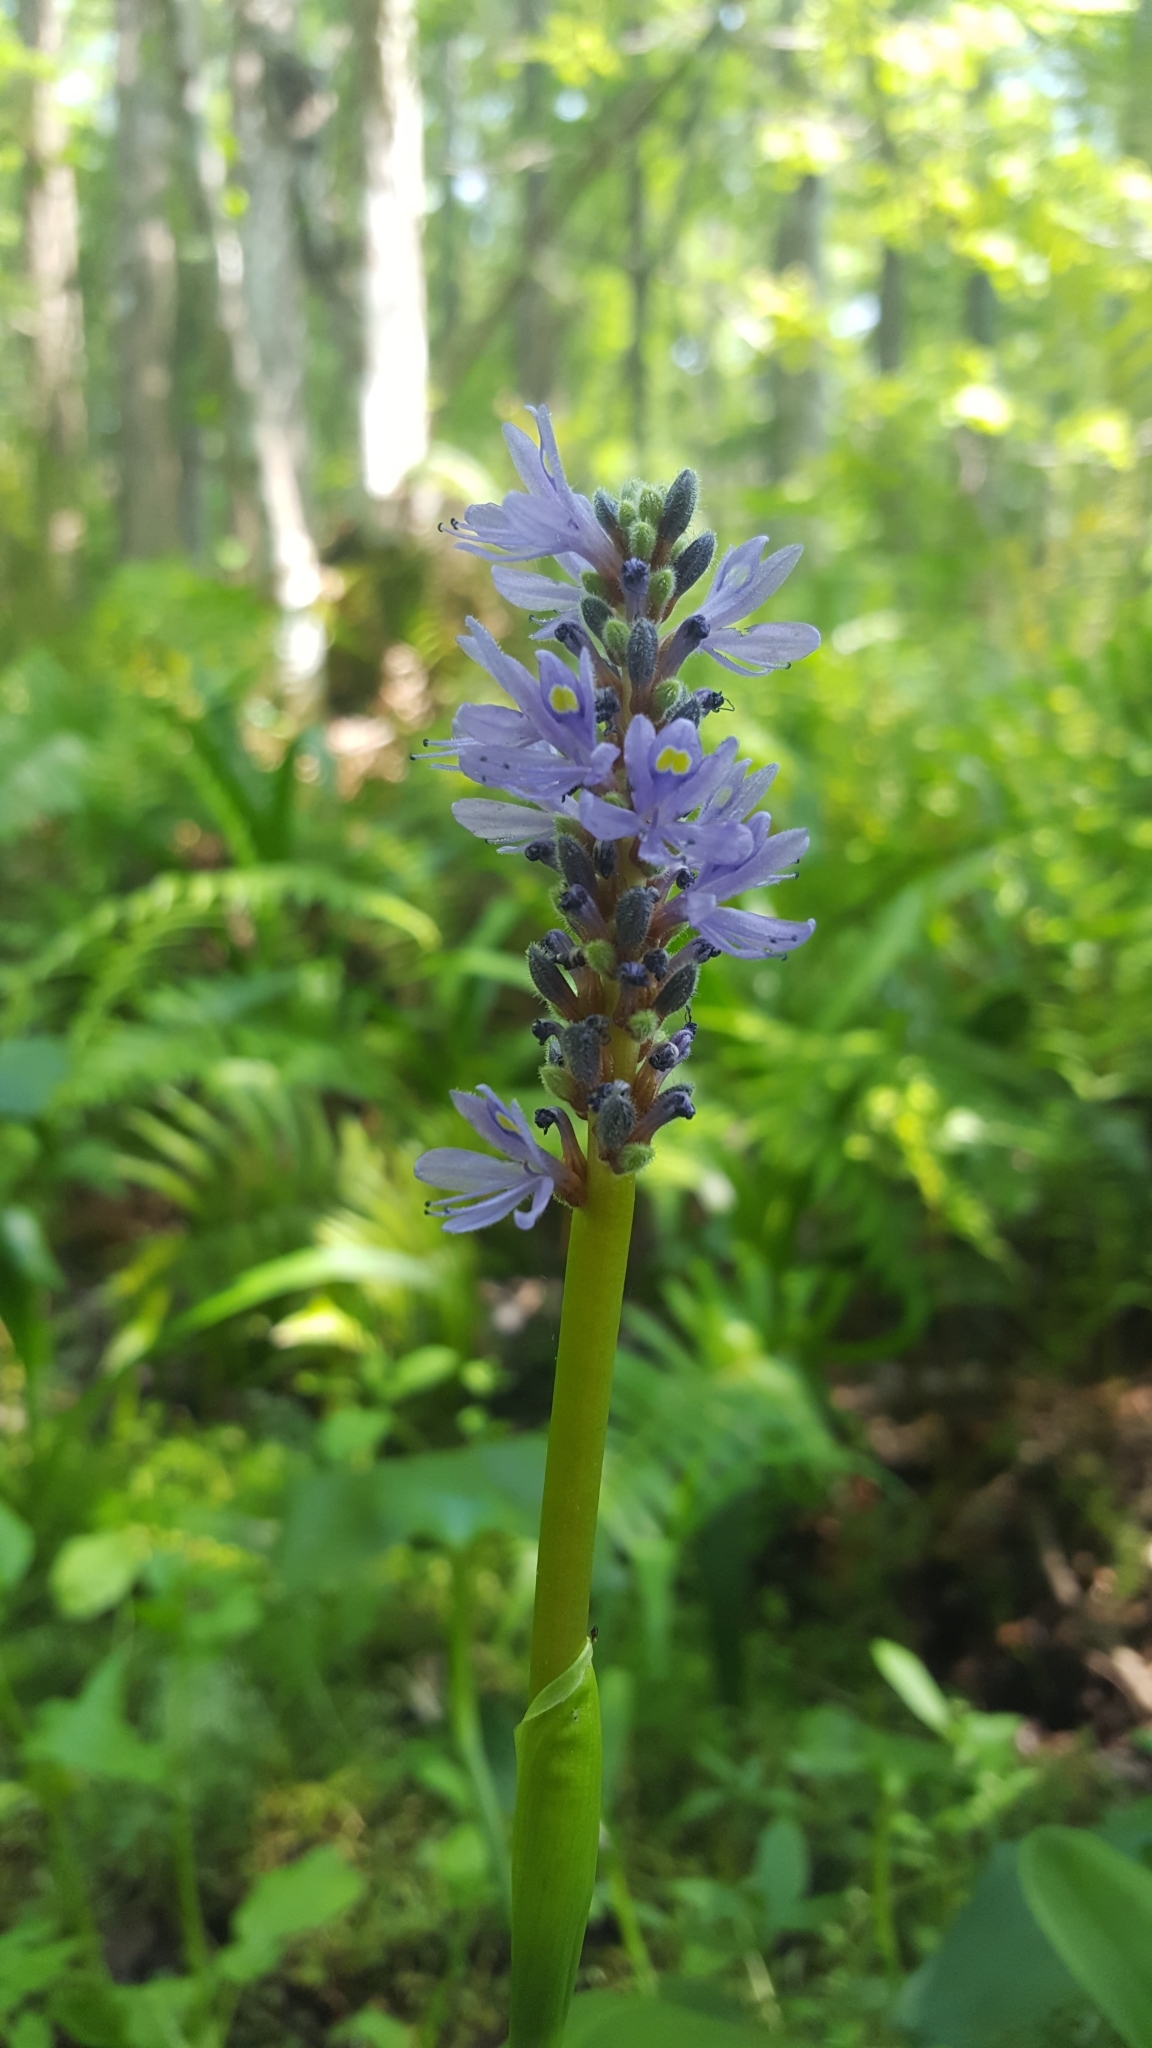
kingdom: Plantae
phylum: Tracheophyta
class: Liliopsida
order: Commelinales
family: Pontederiaceae
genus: Pontederia
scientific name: Pontederia cordata
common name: Pickerelweed
